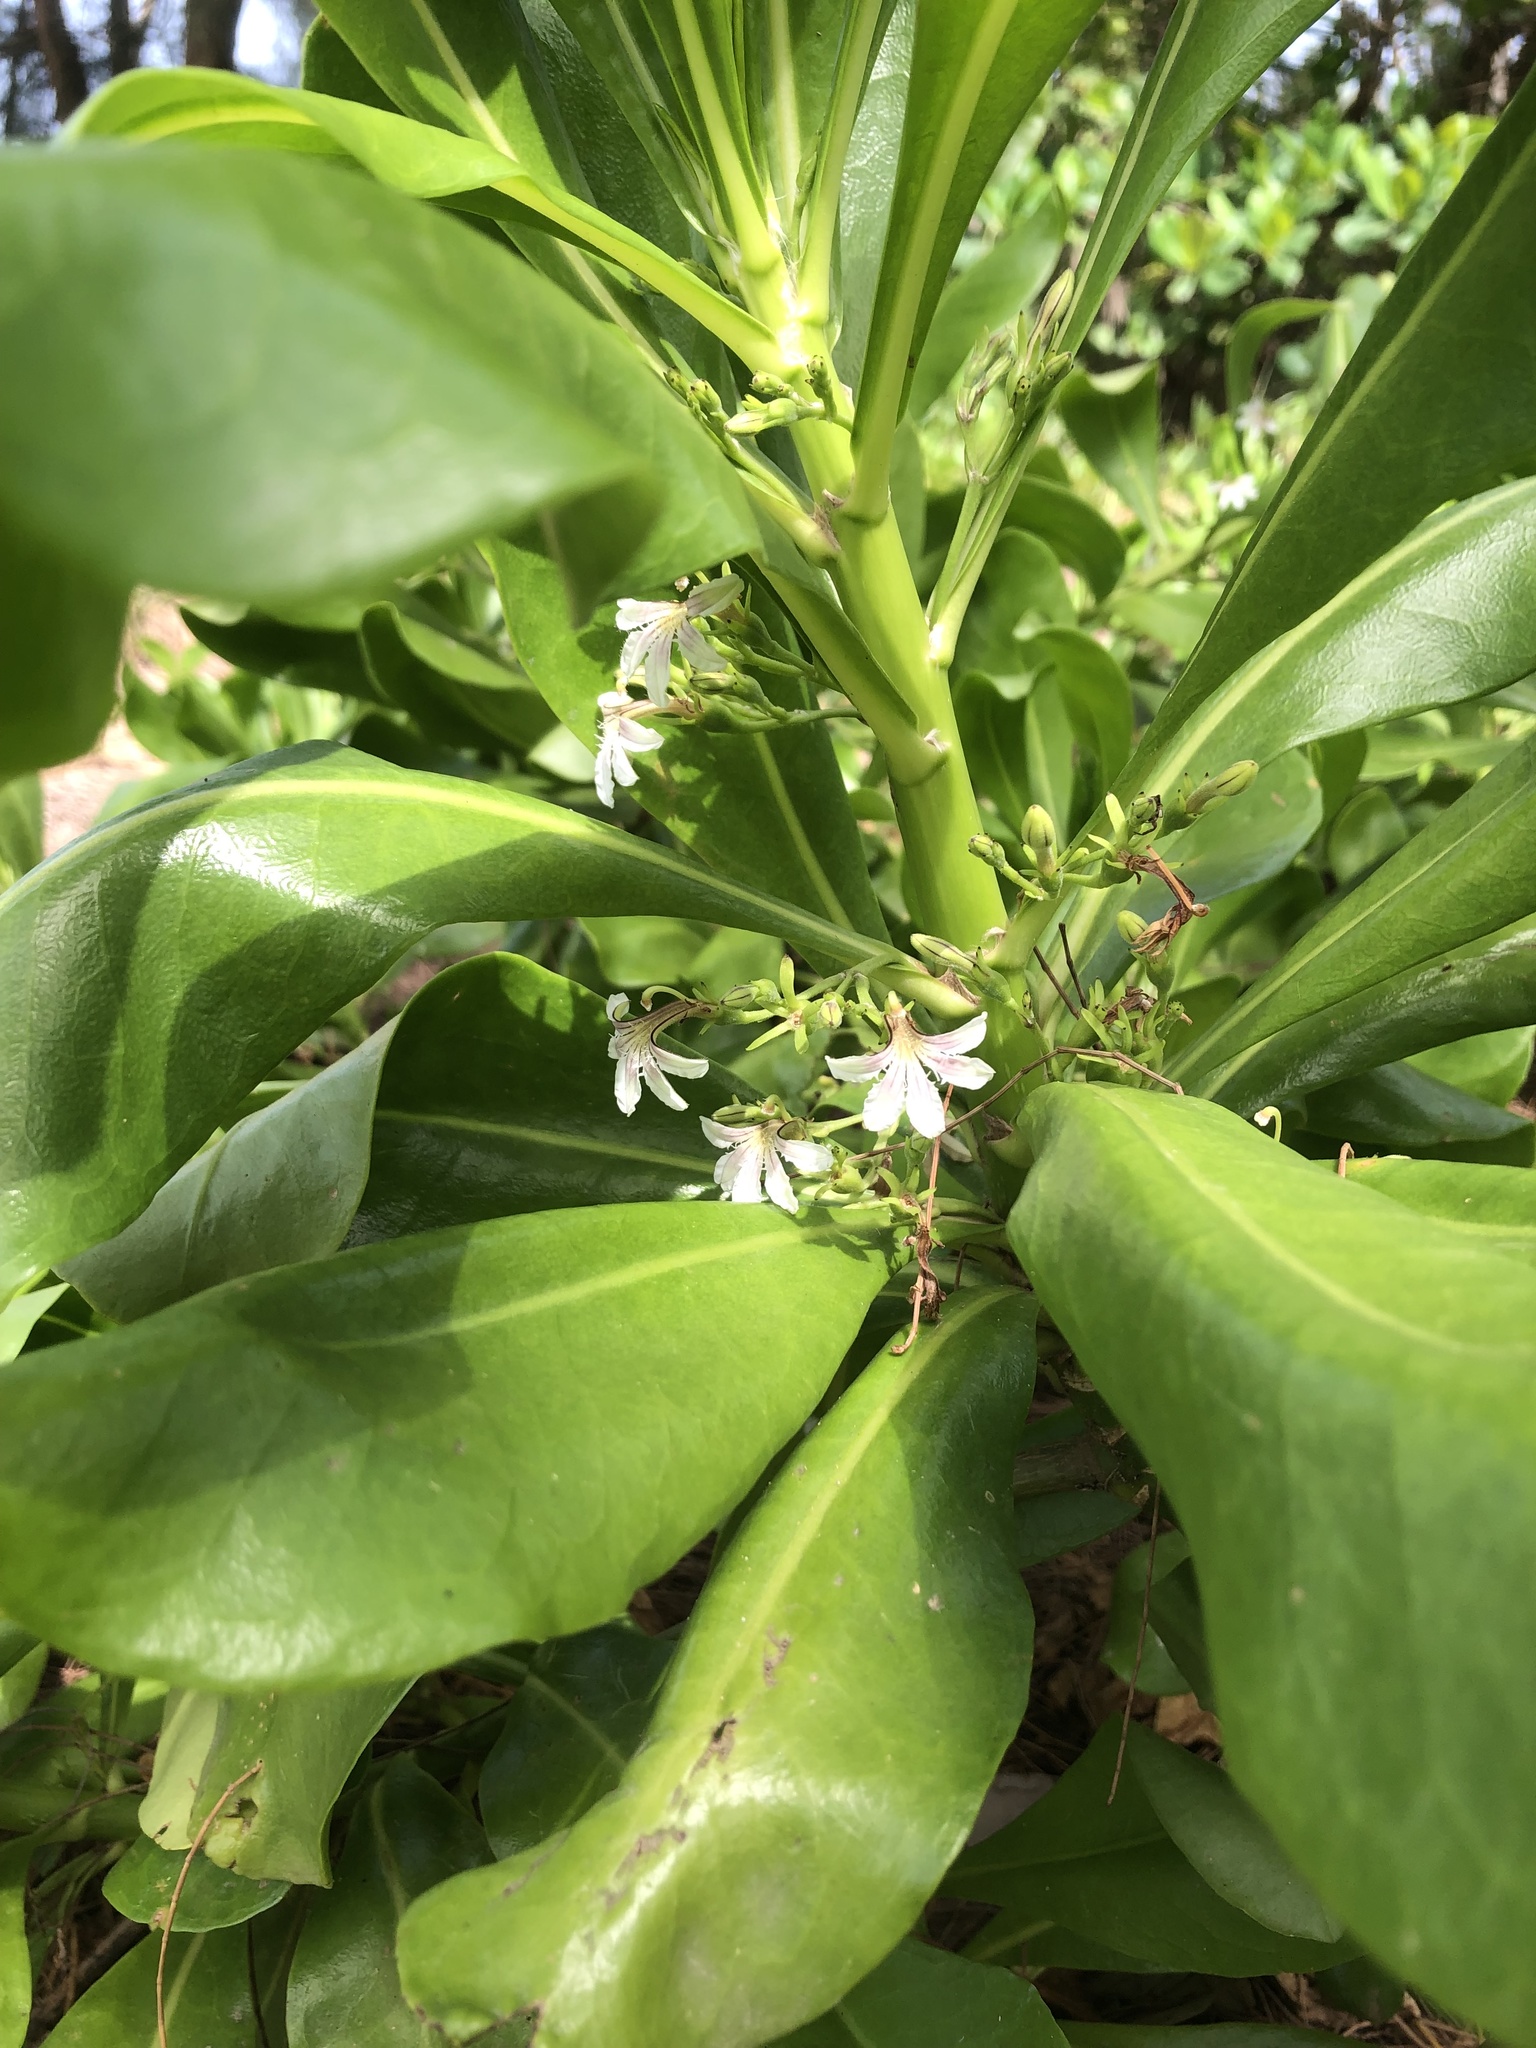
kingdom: Plantae
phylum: Tracheophyta
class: Magnoliopsida
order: Asterales
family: Goodeniaceae
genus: Scaevola
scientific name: Scaevola taccada
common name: Sea lettucetree
